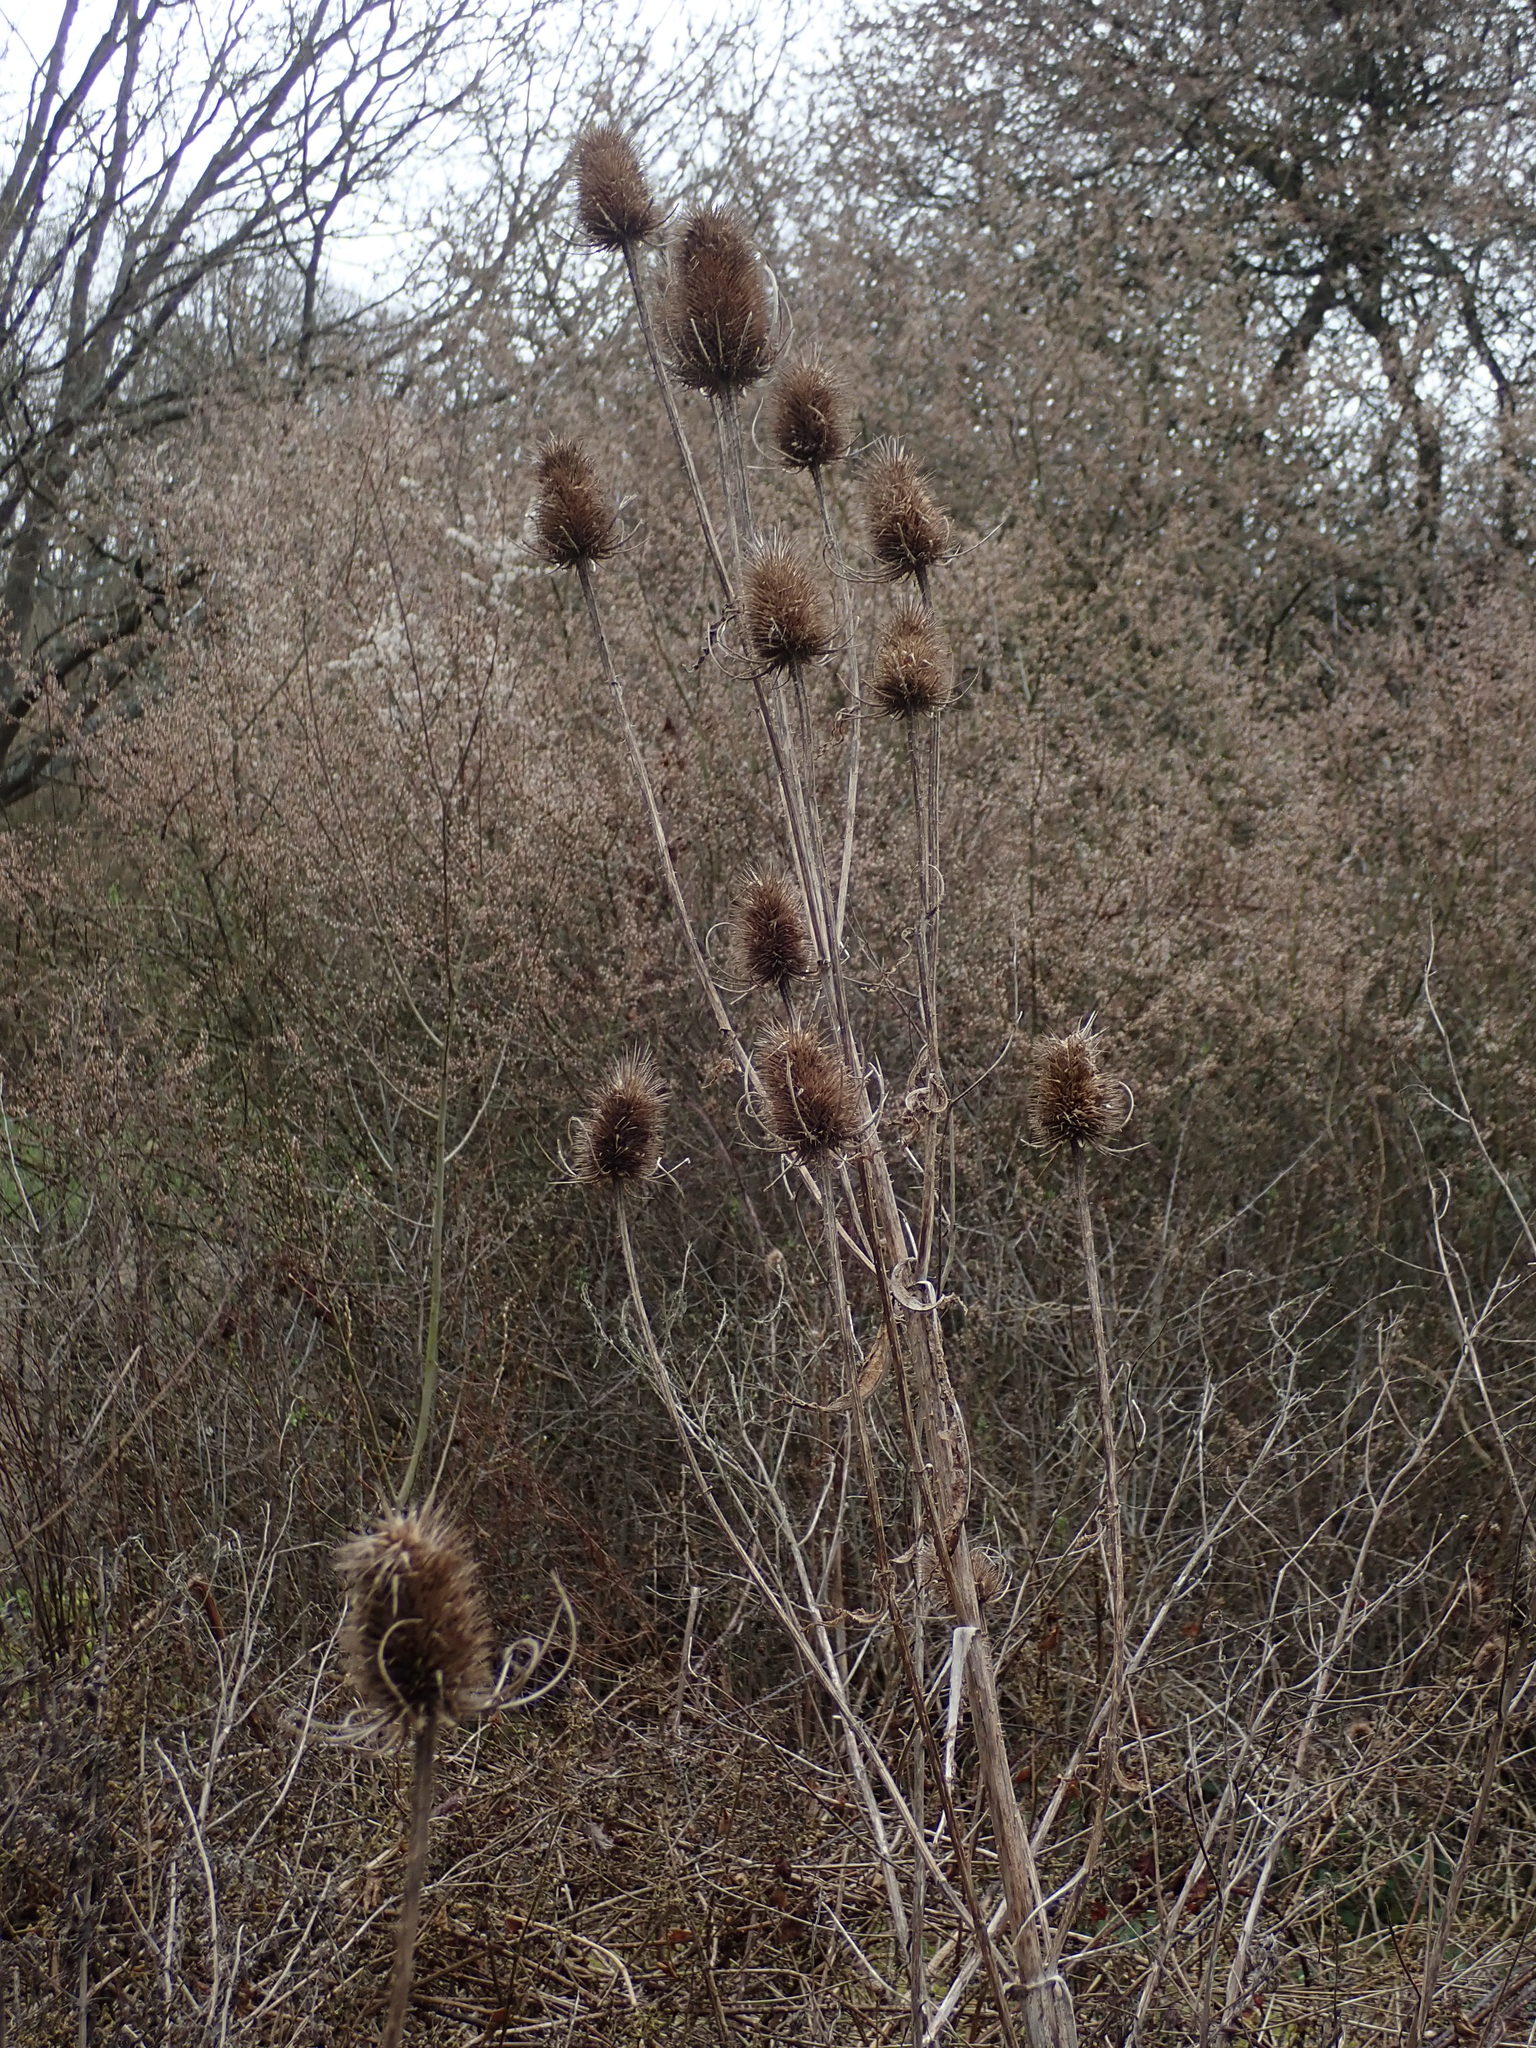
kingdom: Plantae
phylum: Tracheophyta
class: Magnoliopsida
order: Dipsacales
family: Caprifoliaceae
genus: Dipsacus
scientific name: Dipsacus fullonum
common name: Teasel
